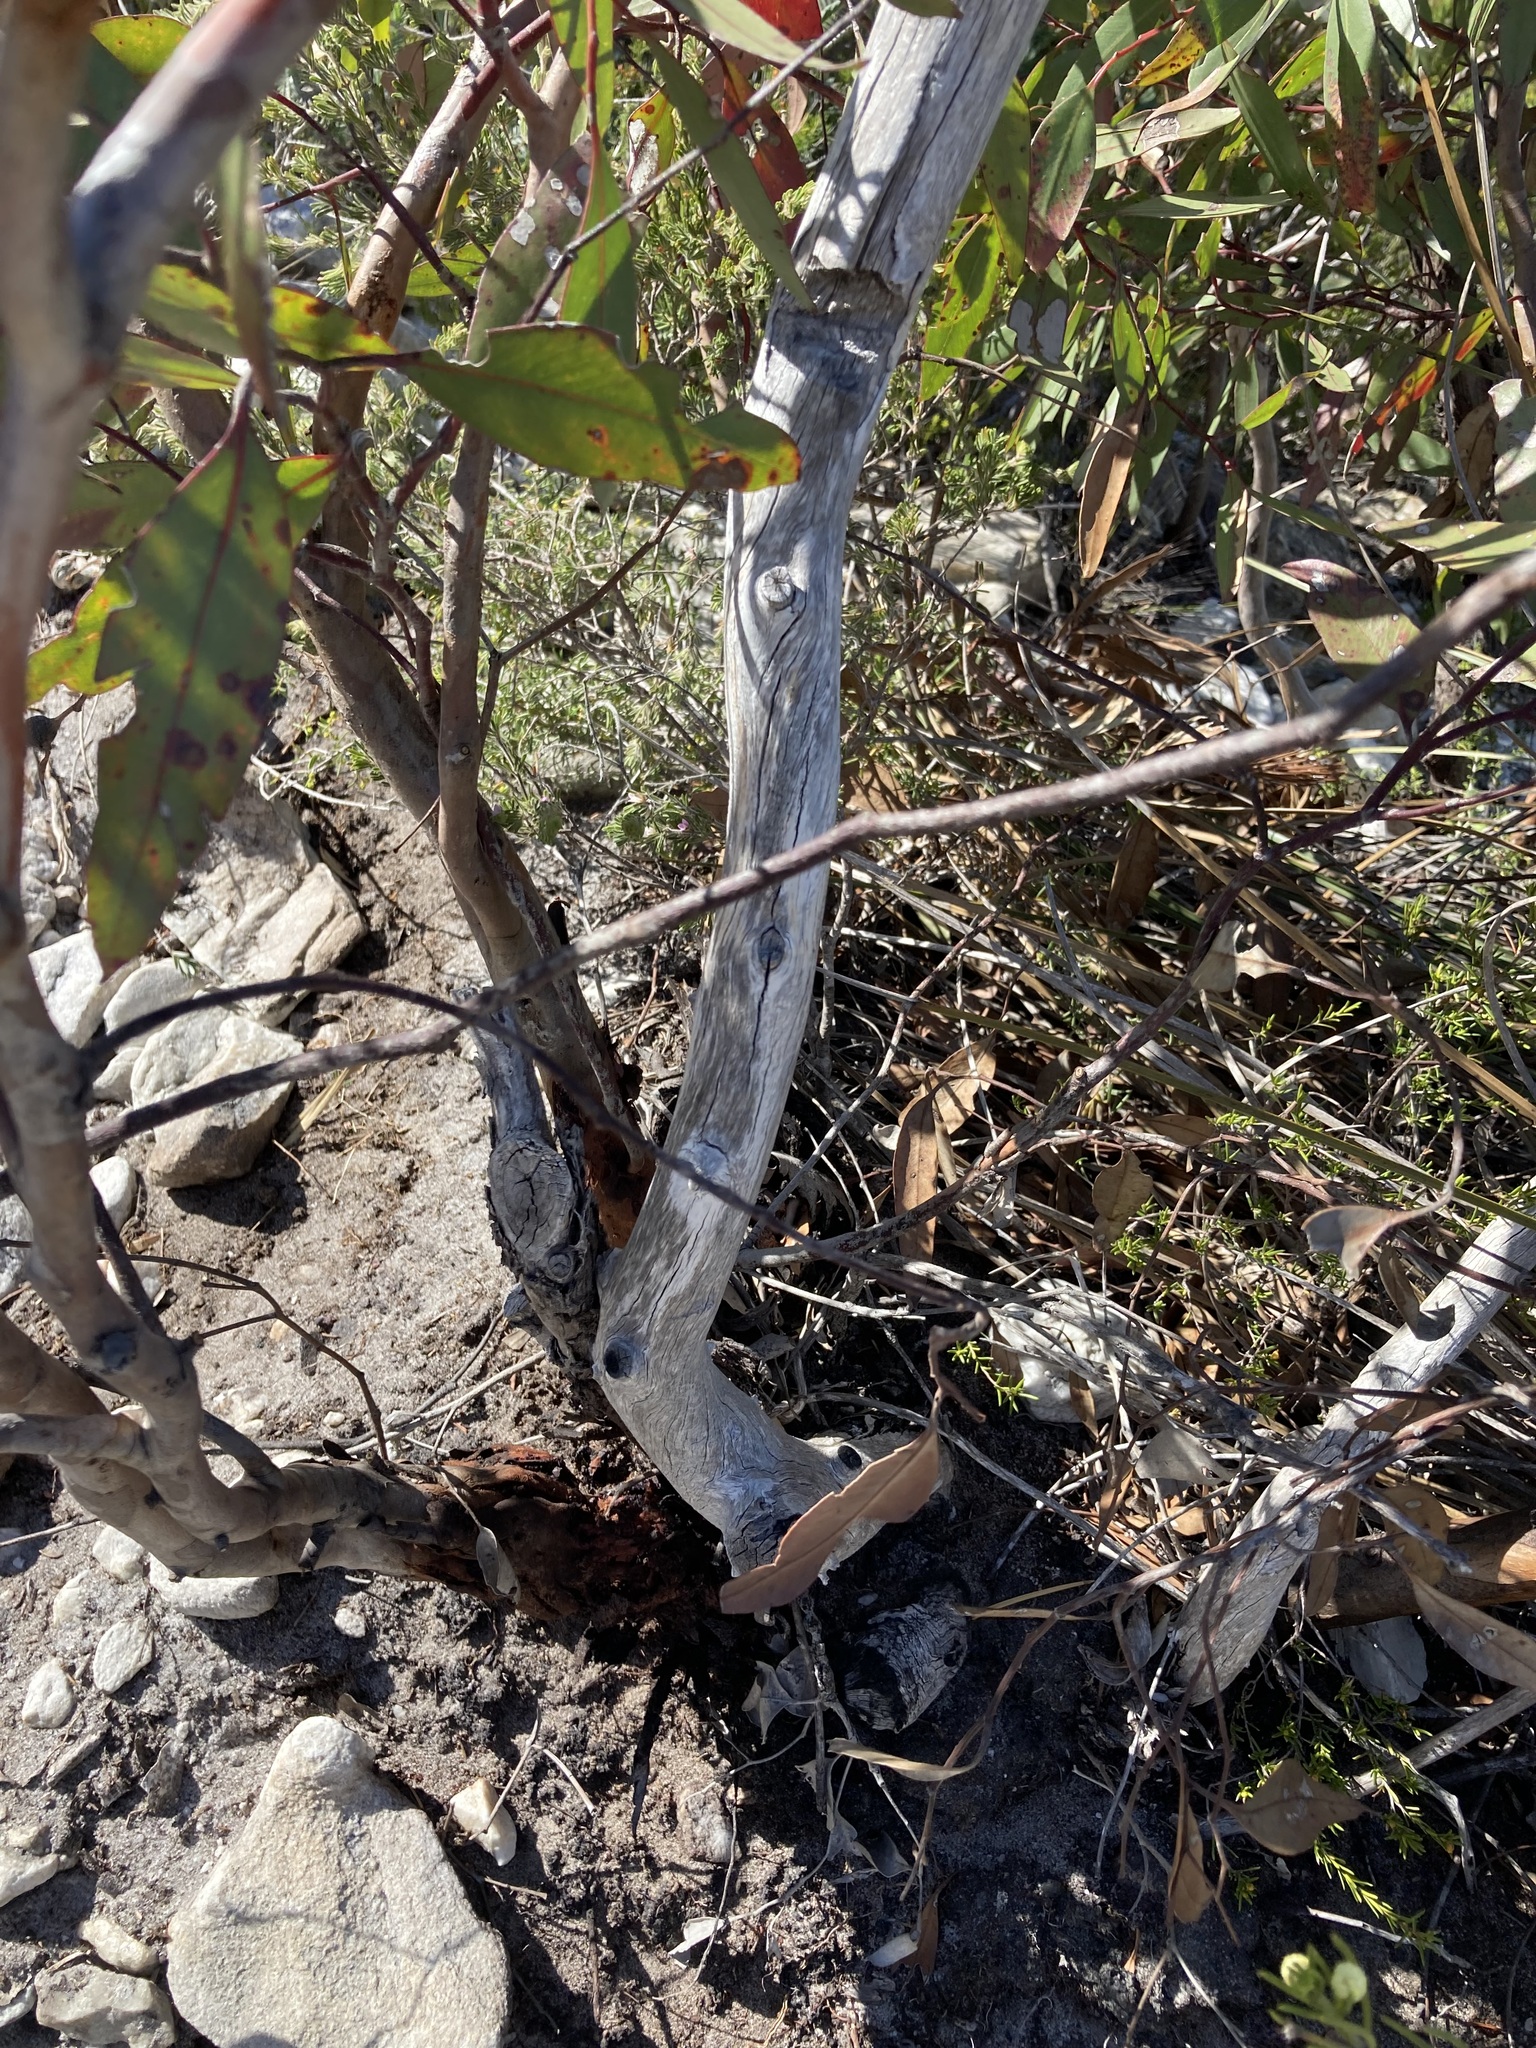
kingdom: Plantae
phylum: Tracheophyta
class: Magnoliopsida
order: Myrtales
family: Myrtaceae
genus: Eucalyptus
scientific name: Eucalyptus burdettiana
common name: Burdetts mallee
